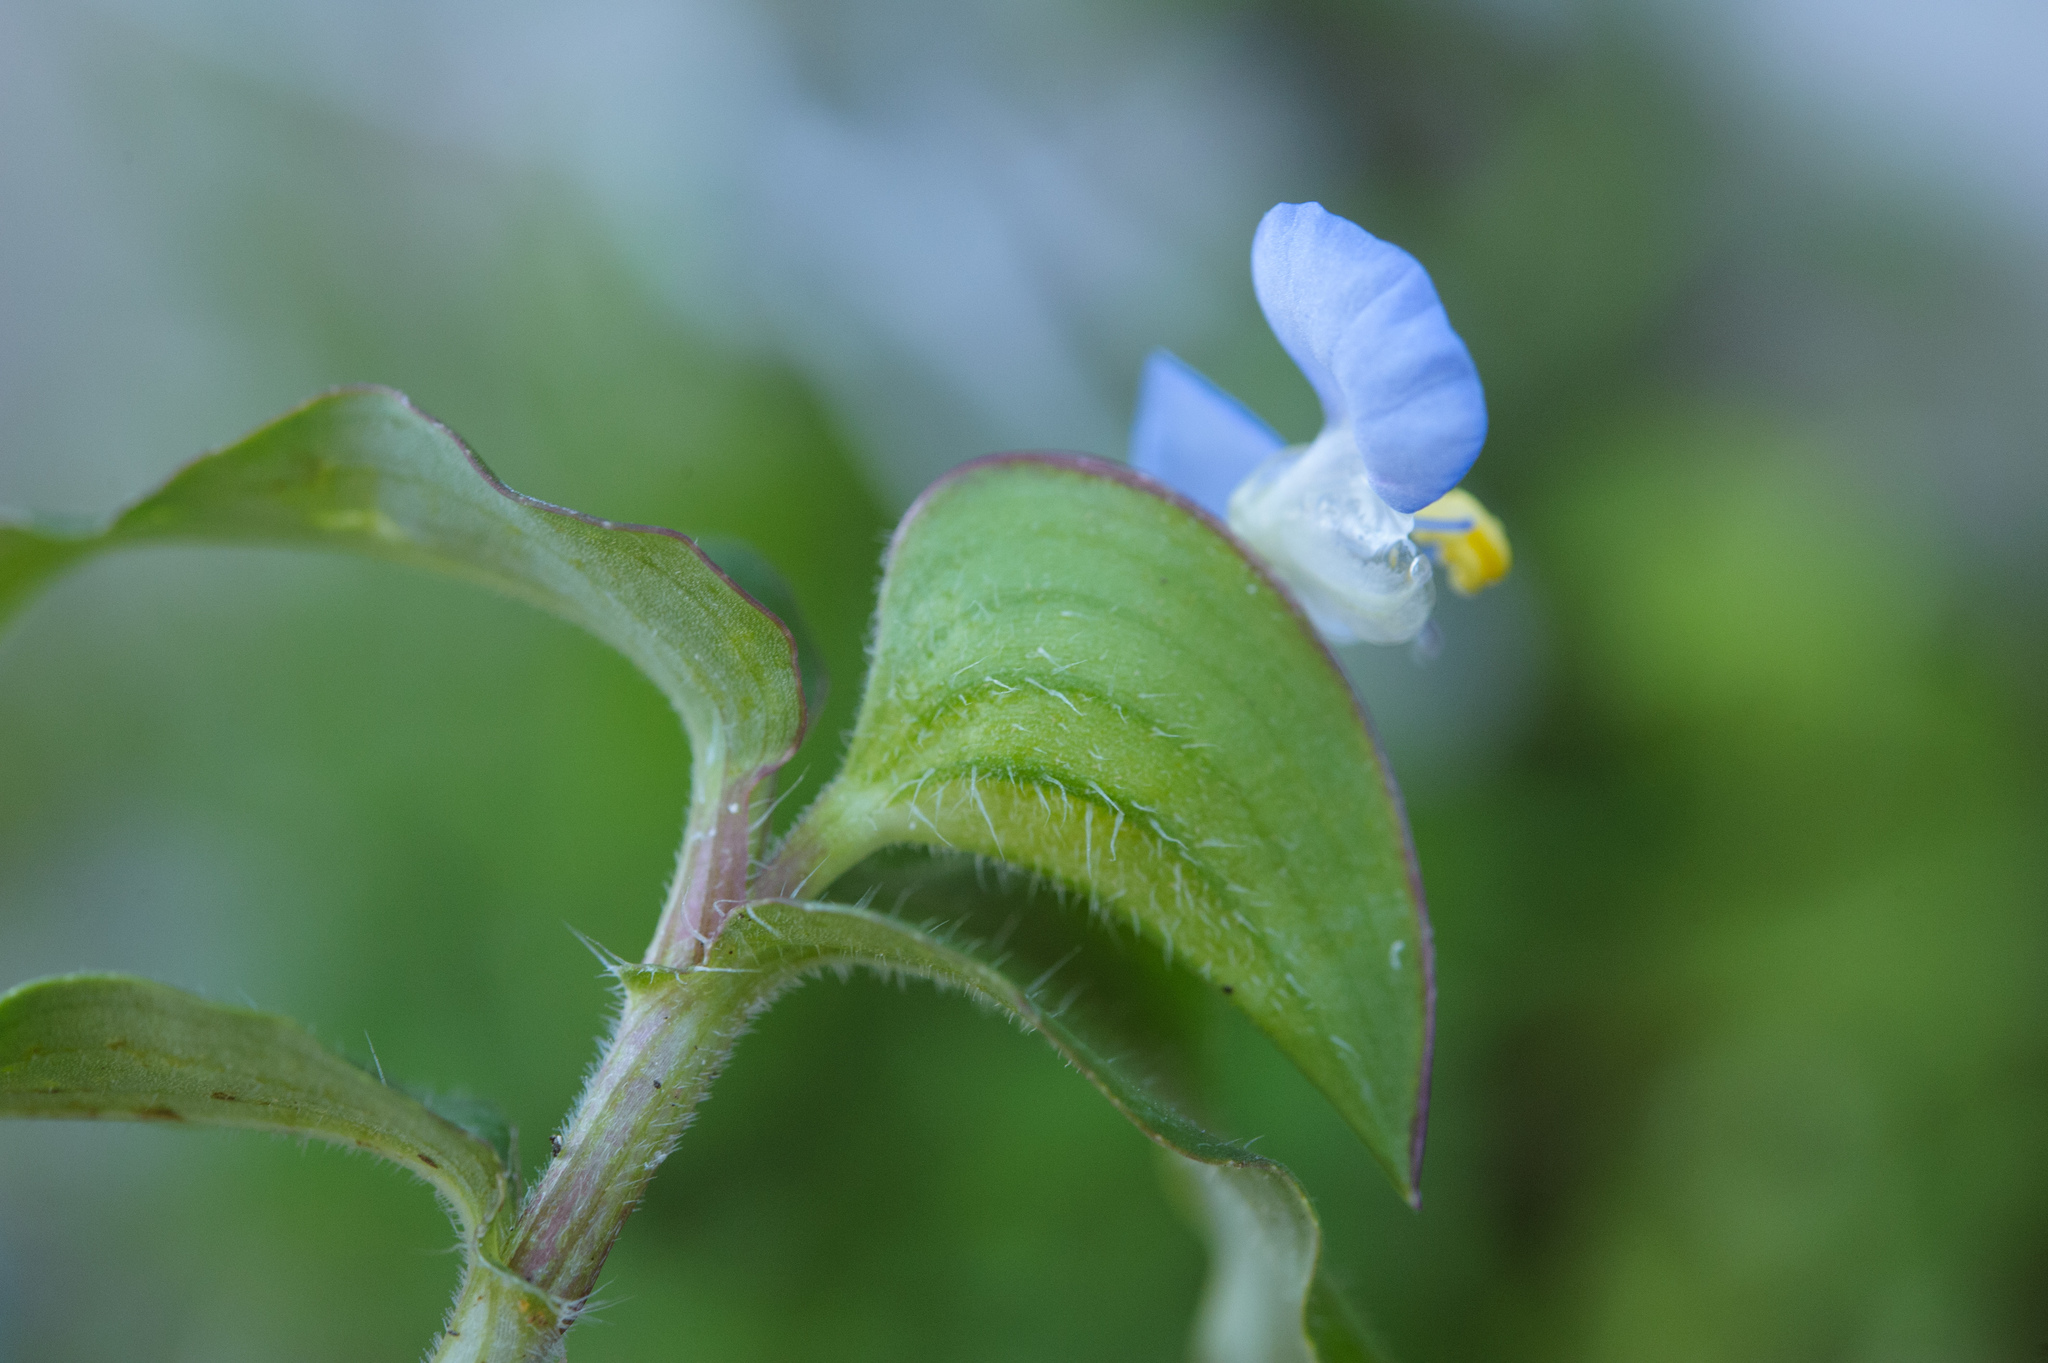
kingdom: Plantae
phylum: Tracheophyta
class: Liliopsida
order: Commelinales
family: Commelinaceae
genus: Commelina
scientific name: Commelina benghalensis
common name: Jio
